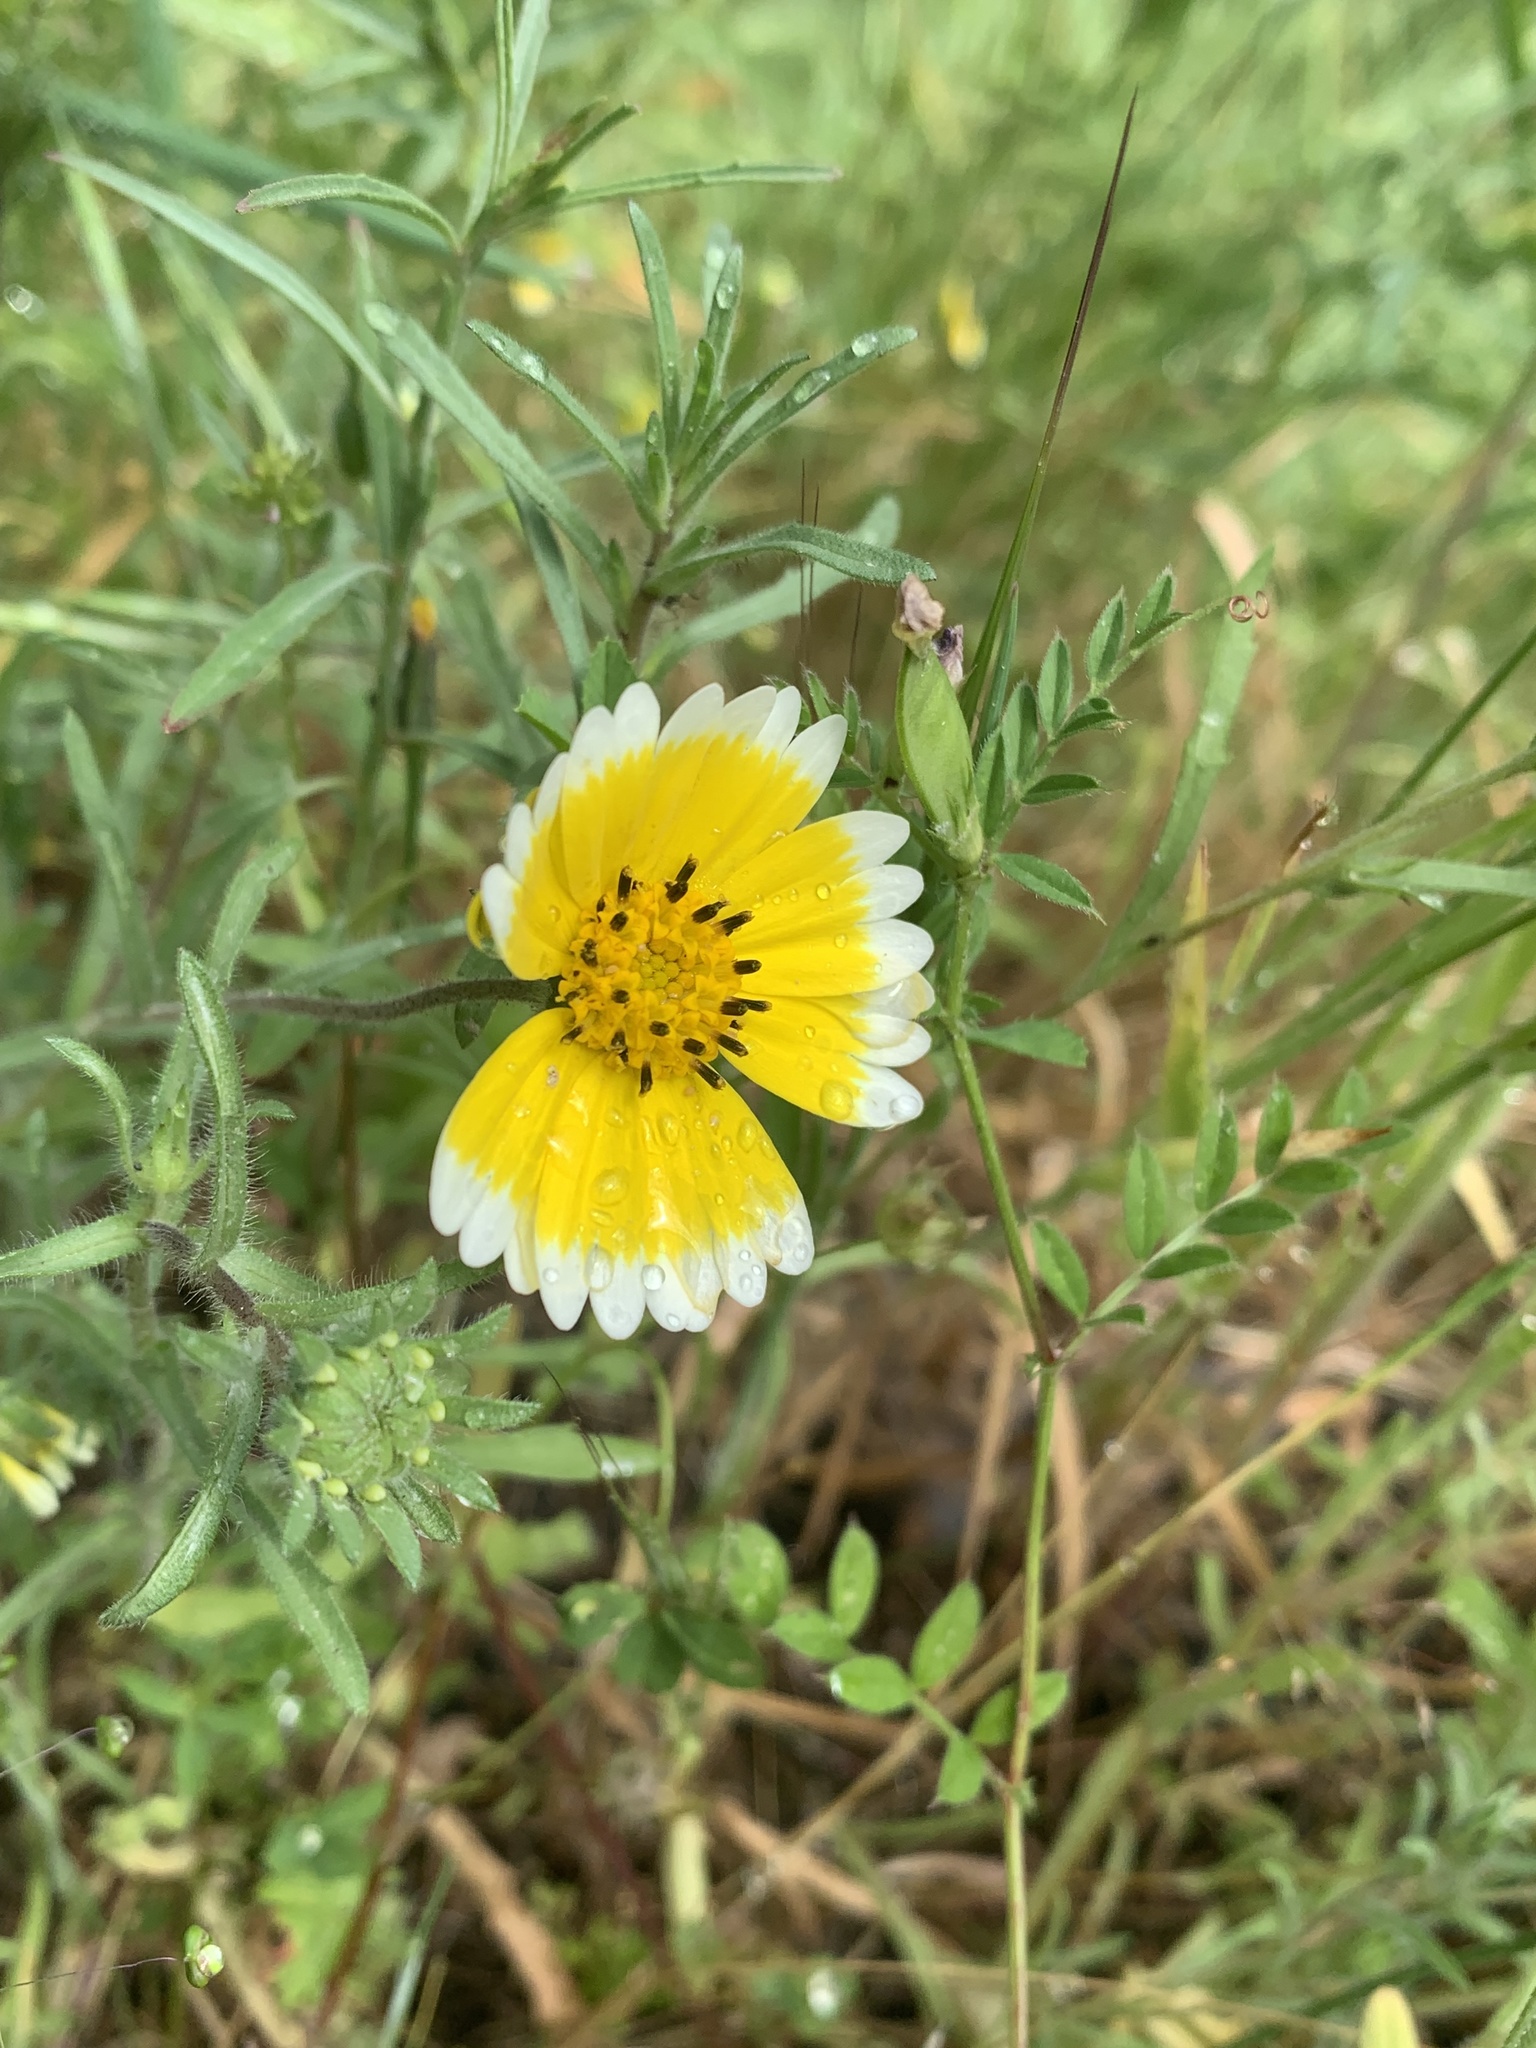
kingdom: Plantae
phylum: Tracheophyta
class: Magnoliopsida
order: Asterales
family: Asteraceae
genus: Layia
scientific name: Layia platyglossa
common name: Tidy-tips
